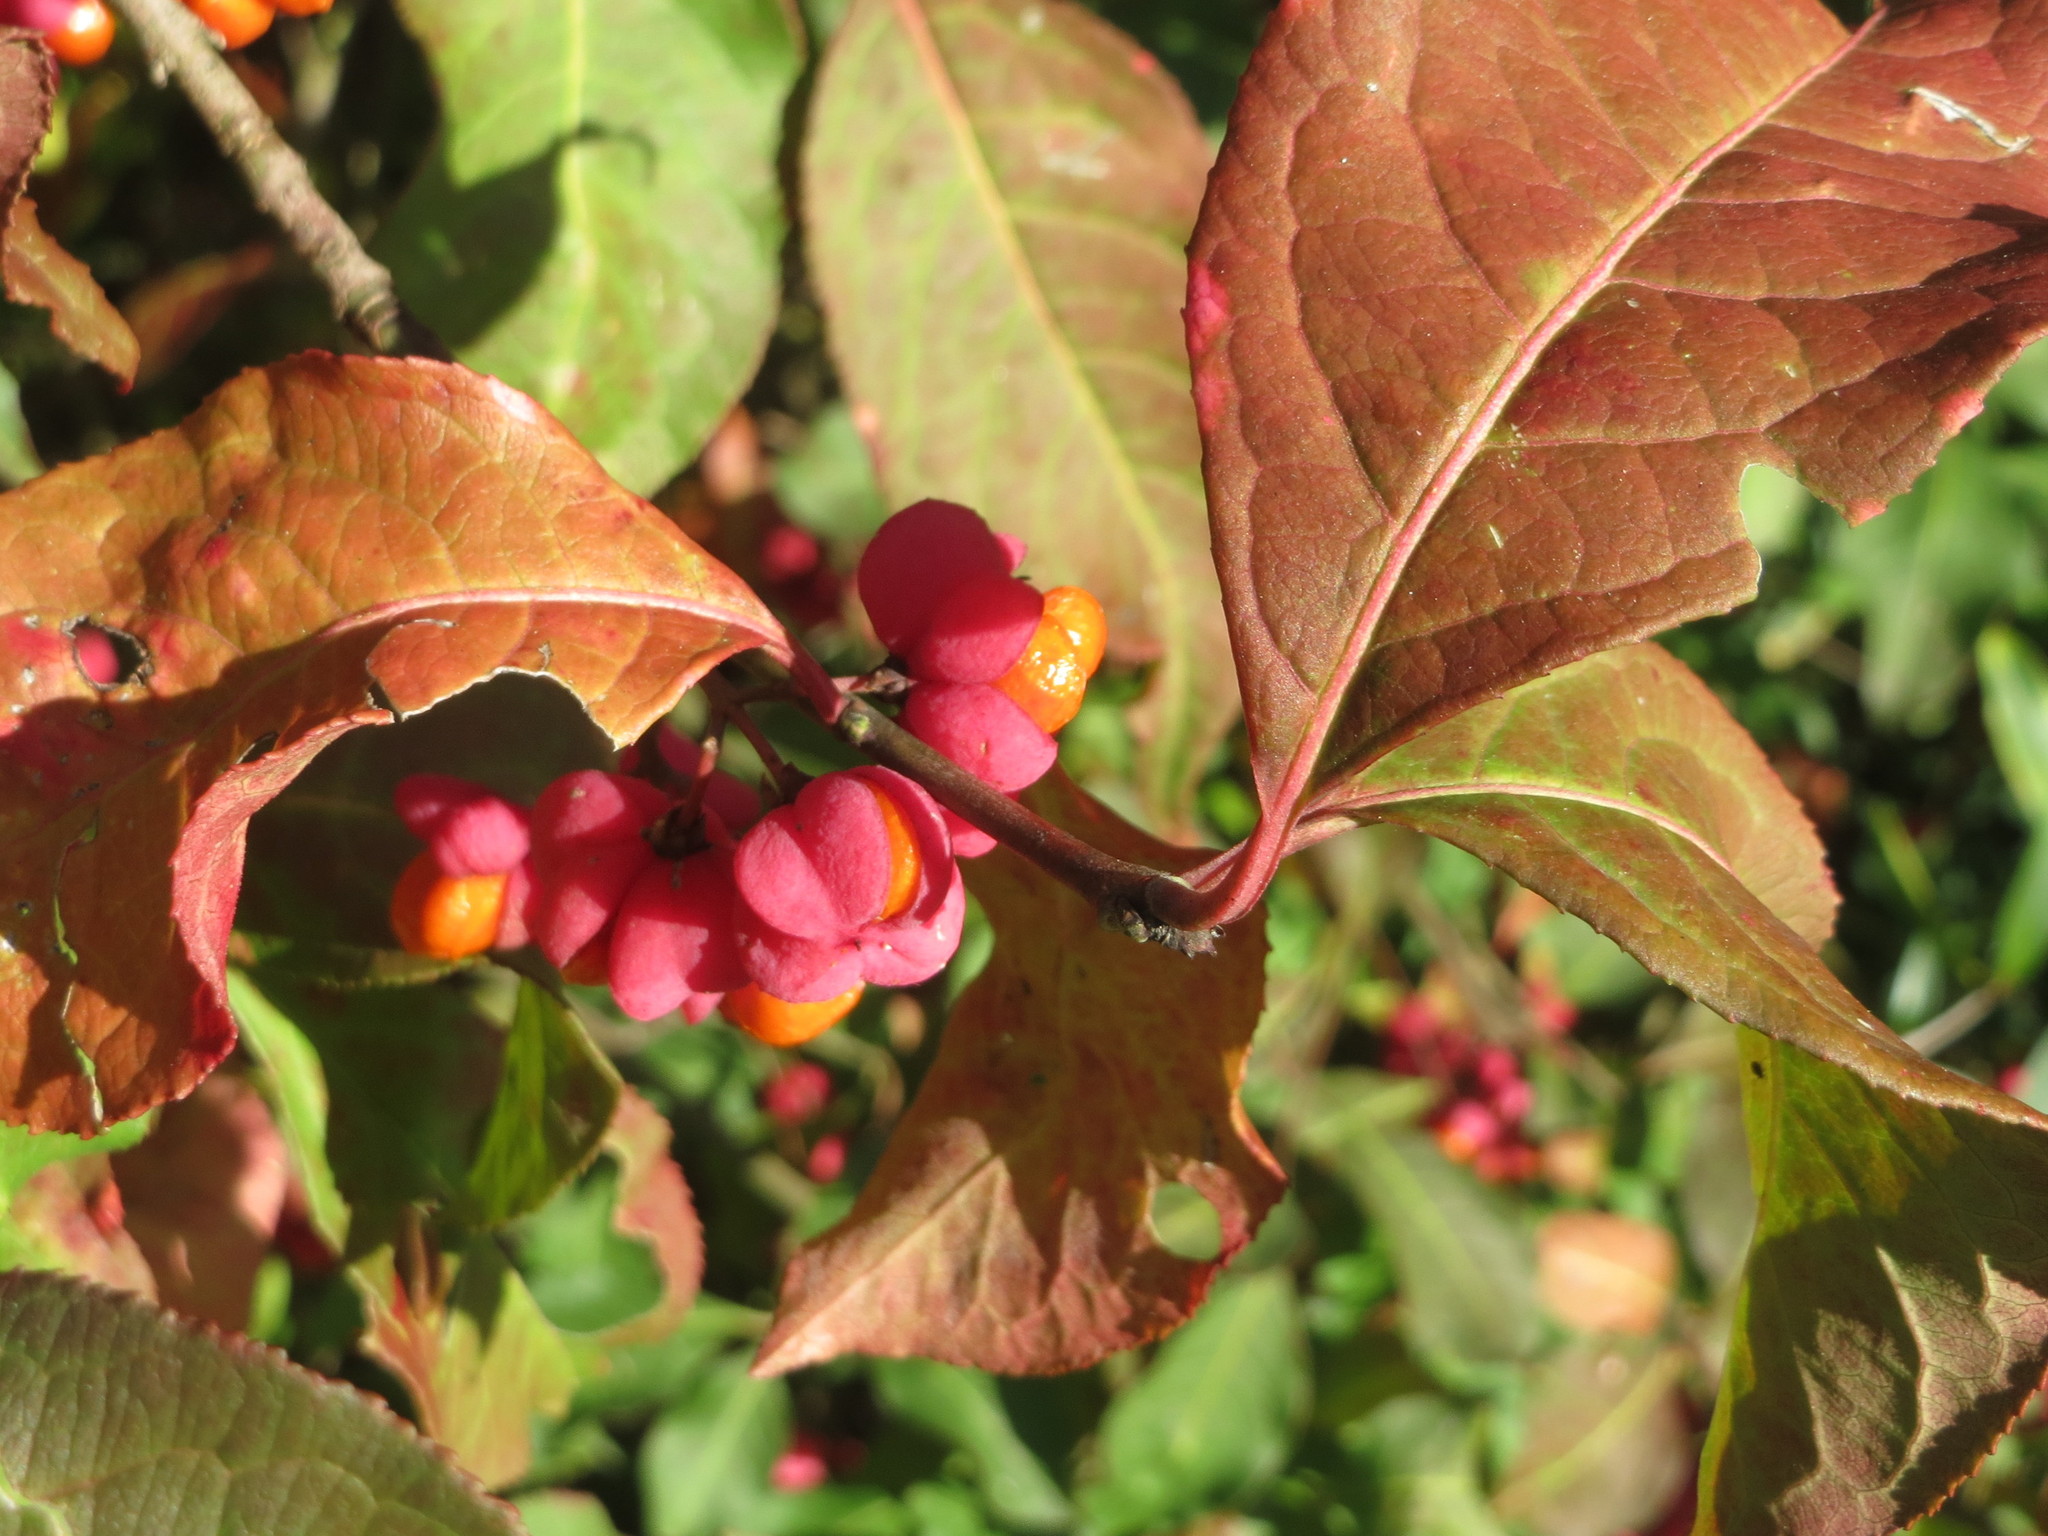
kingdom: Plantae
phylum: Tracheophyta
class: Magnoliopsida
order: Celastrales
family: Celastraceae
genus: Euonymus
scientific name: Euonymus europaeus
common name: Spindle
